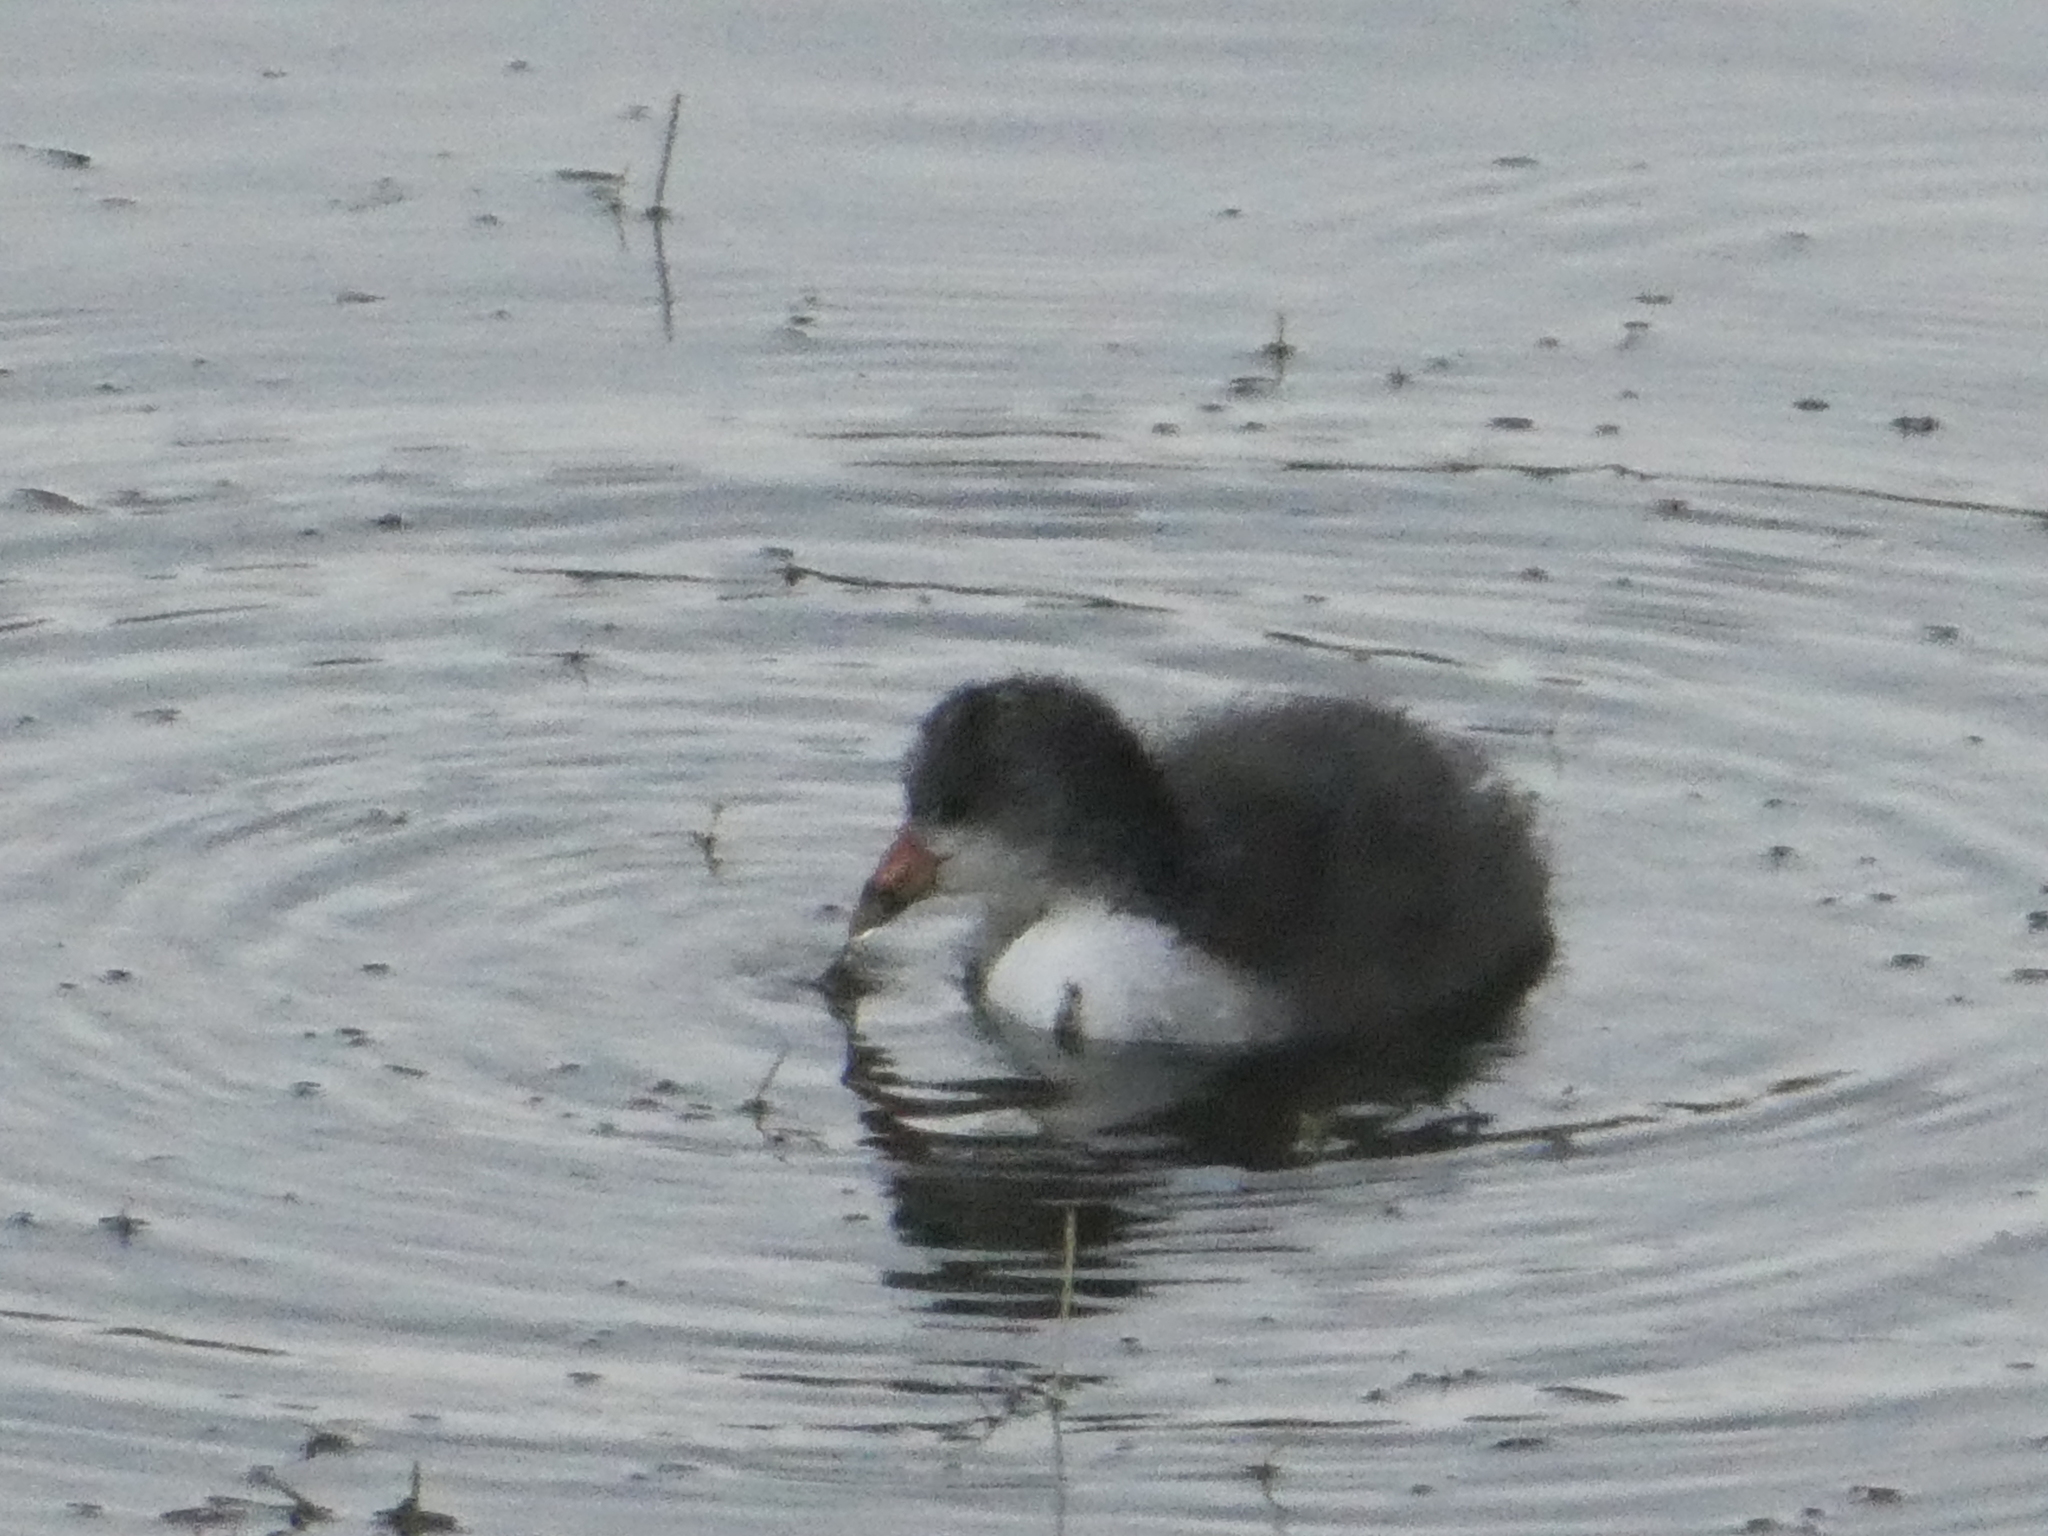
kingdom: Animalia
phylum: Chordata
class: Aves
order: Gruiformes
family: Rallidae
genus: Fulica
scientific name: Fulica americana
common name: American coot
